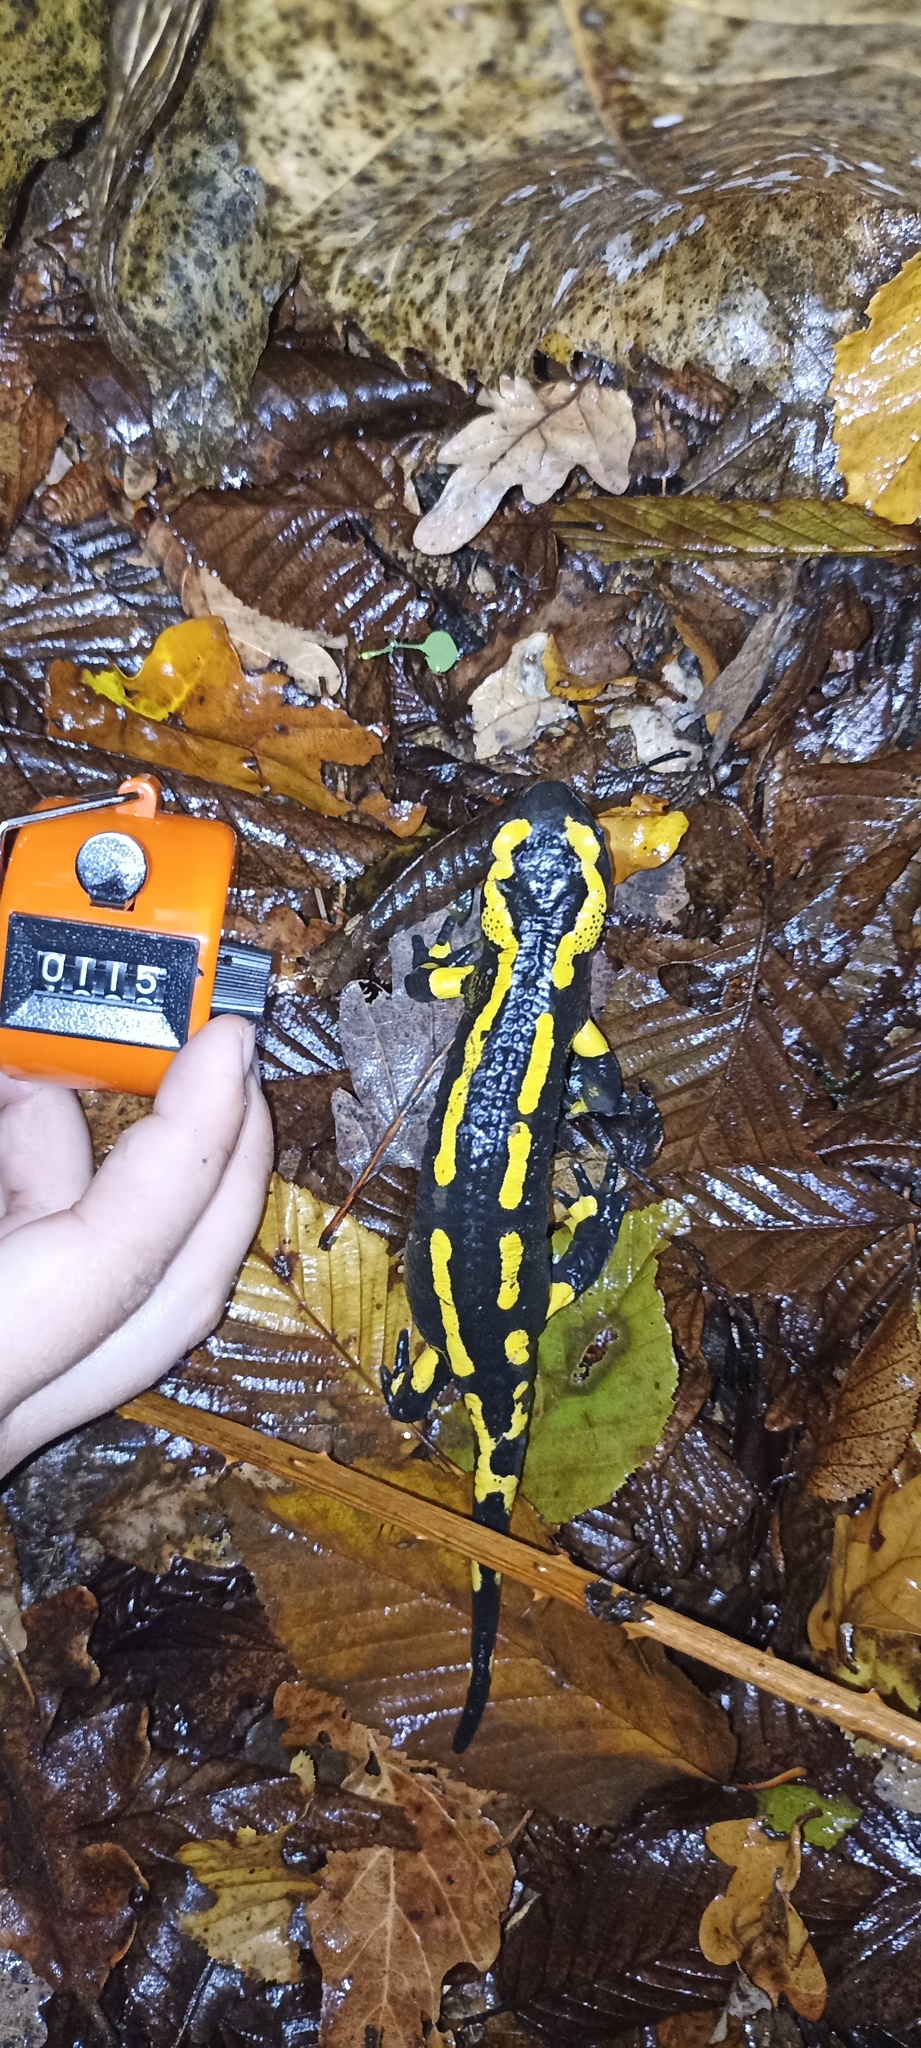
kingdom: Animalia
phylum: Chordata
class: Amphibia
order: Caudata
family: Salamandridae
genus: Salamandra
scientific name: Salamandra salamandra
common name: Fire salamander
